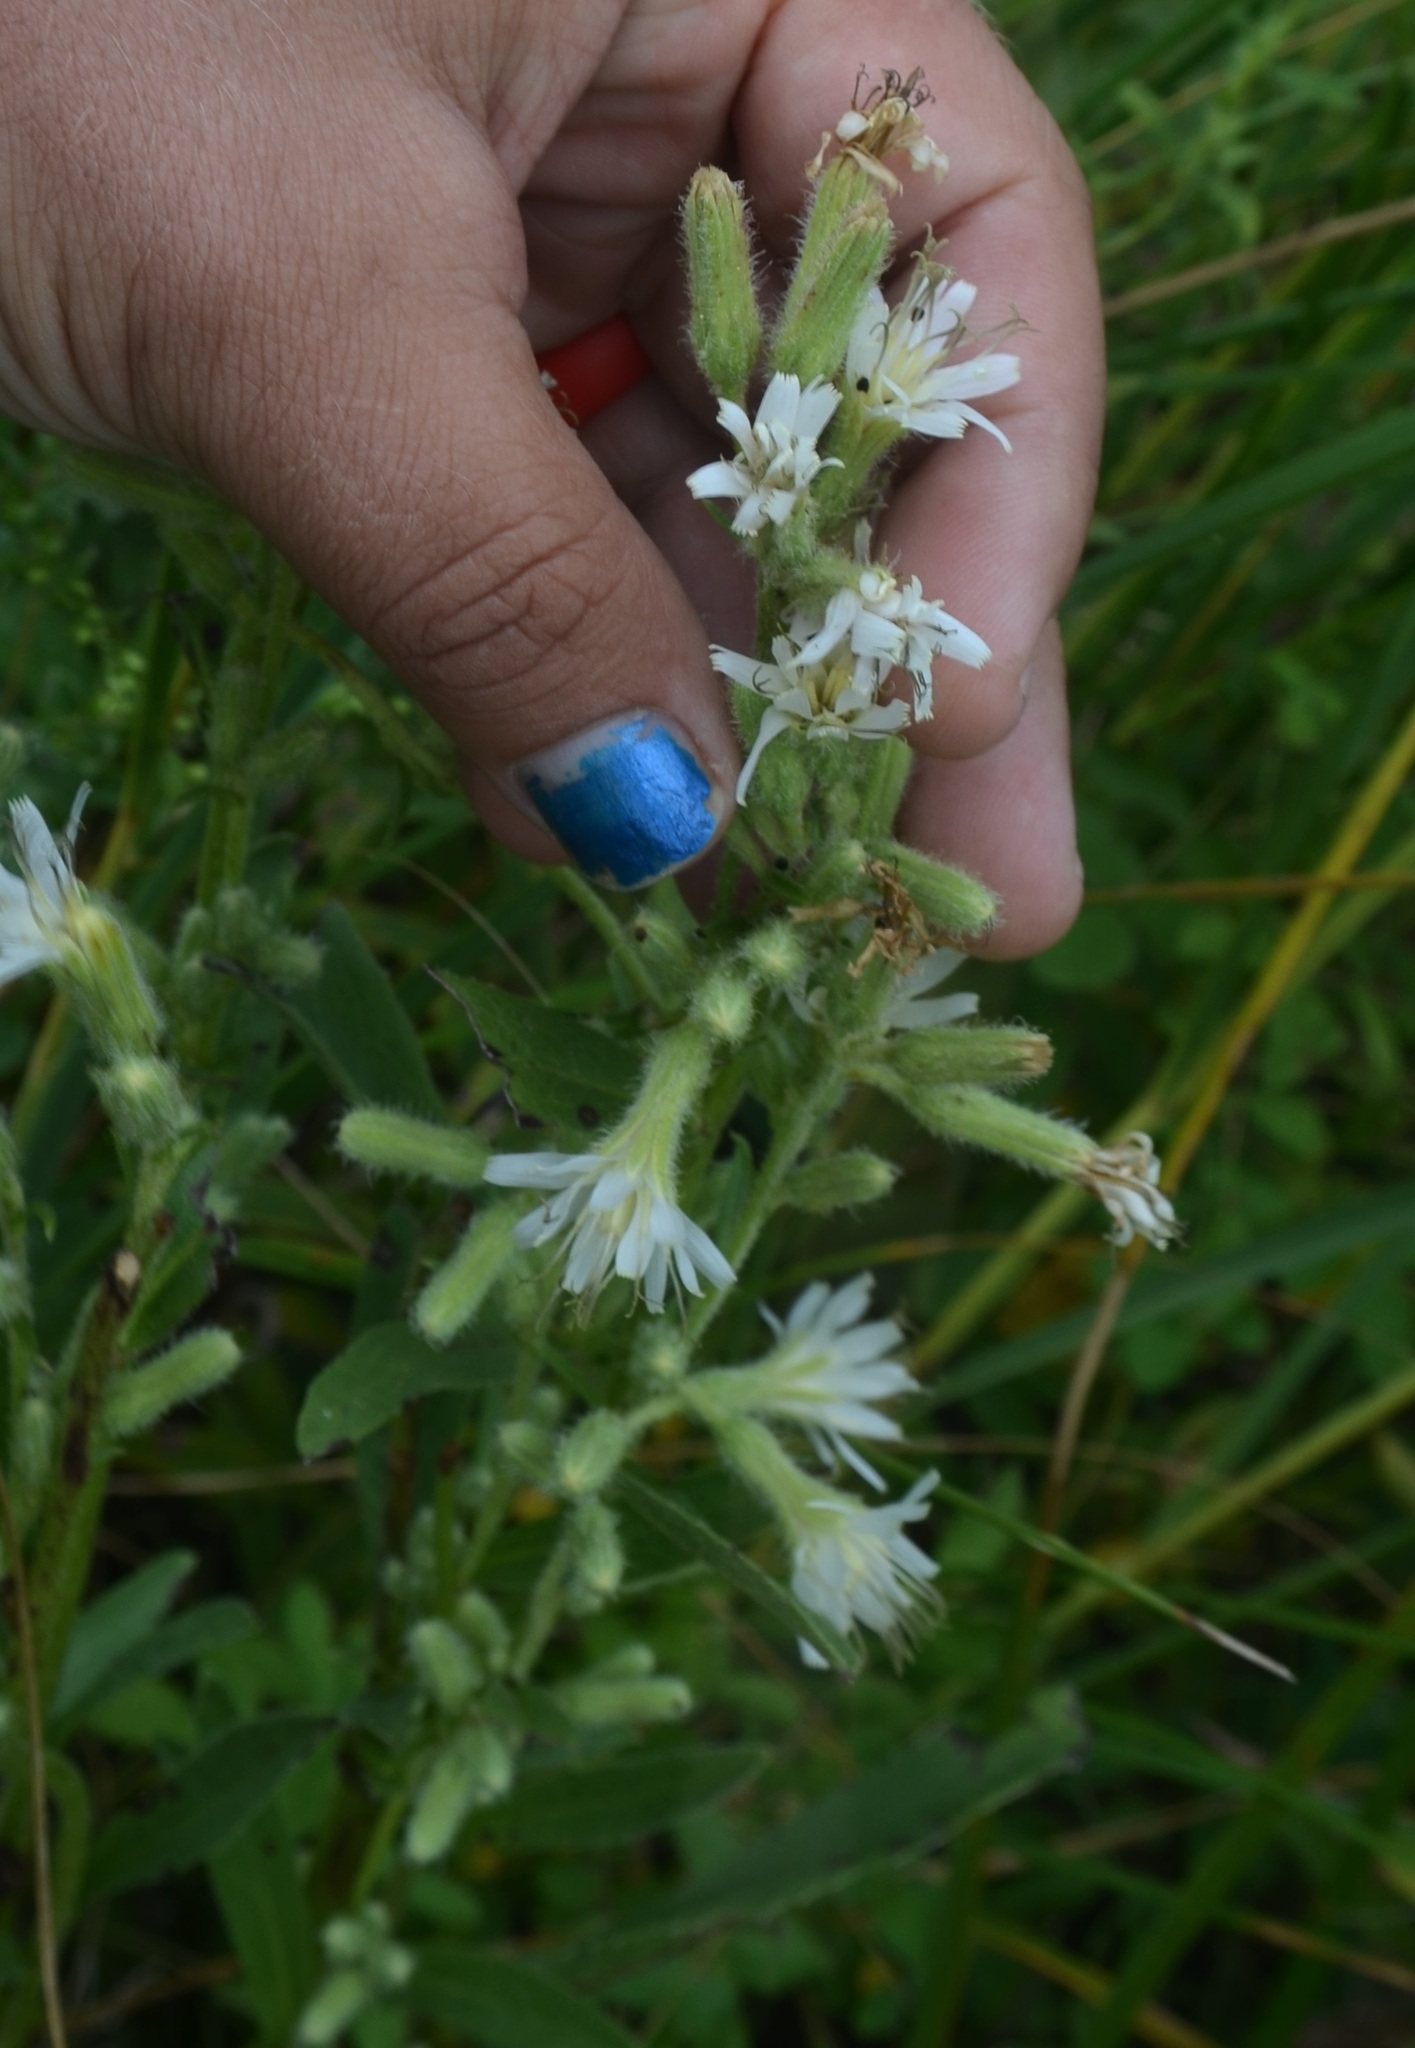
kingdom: Plantae
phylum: Tracheophyta
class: Magnoliopsida
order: Asterales
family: Asteraceae
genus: Nabalus
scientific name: Nabalus asper
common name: Rough rattlesnakeroot
